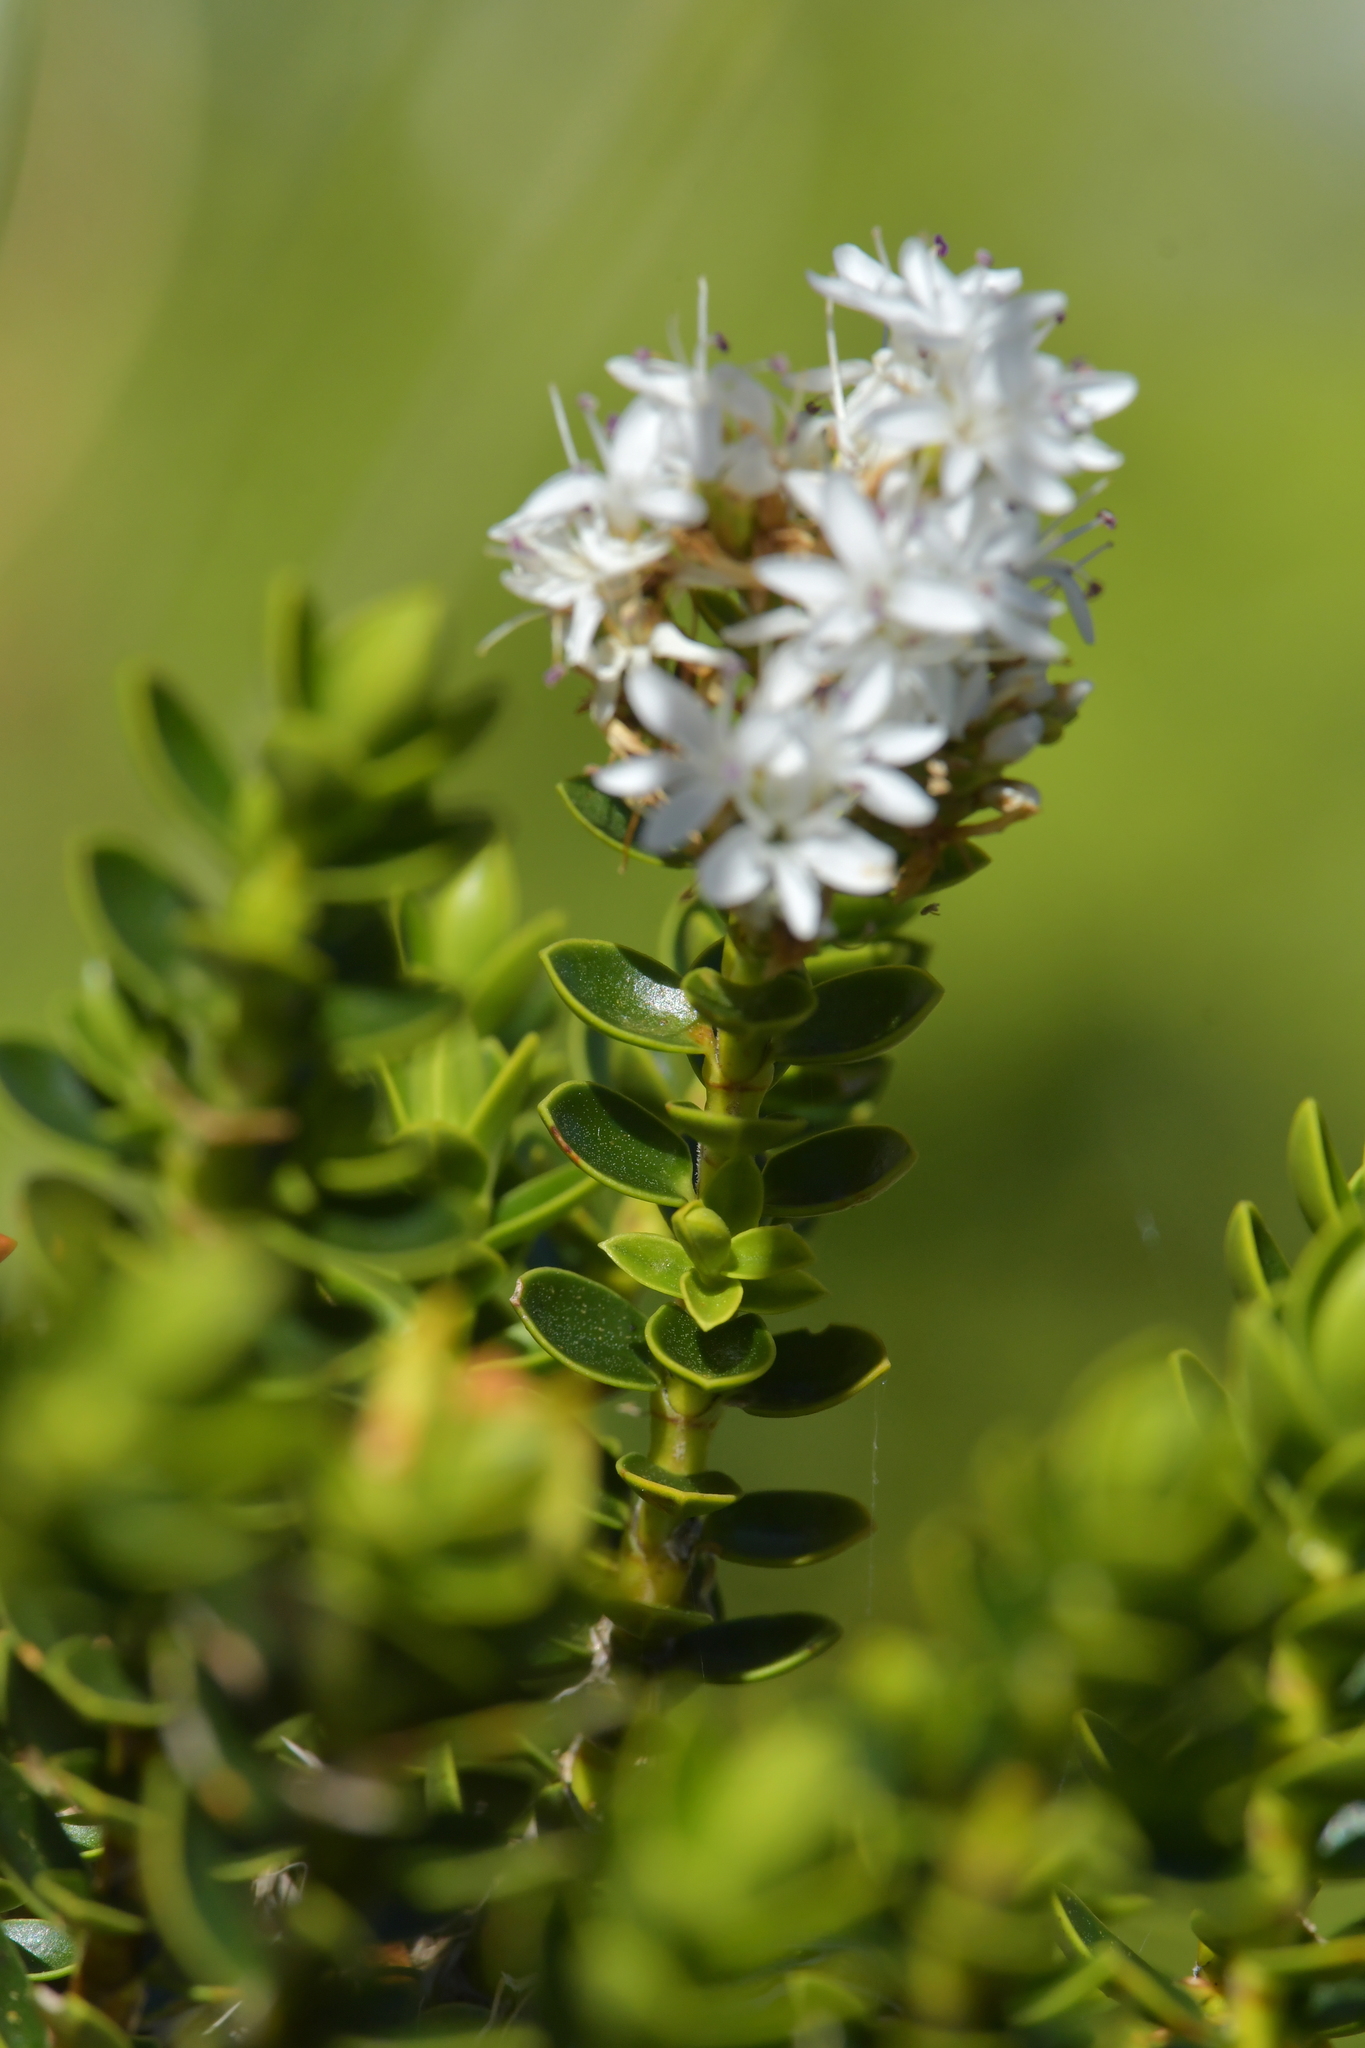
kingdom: Plantae
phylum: Tracheophyta
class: Magnoliopsida
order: Lamiales
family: Plantaginaceae
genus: Veronica
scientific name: Veronica odora
